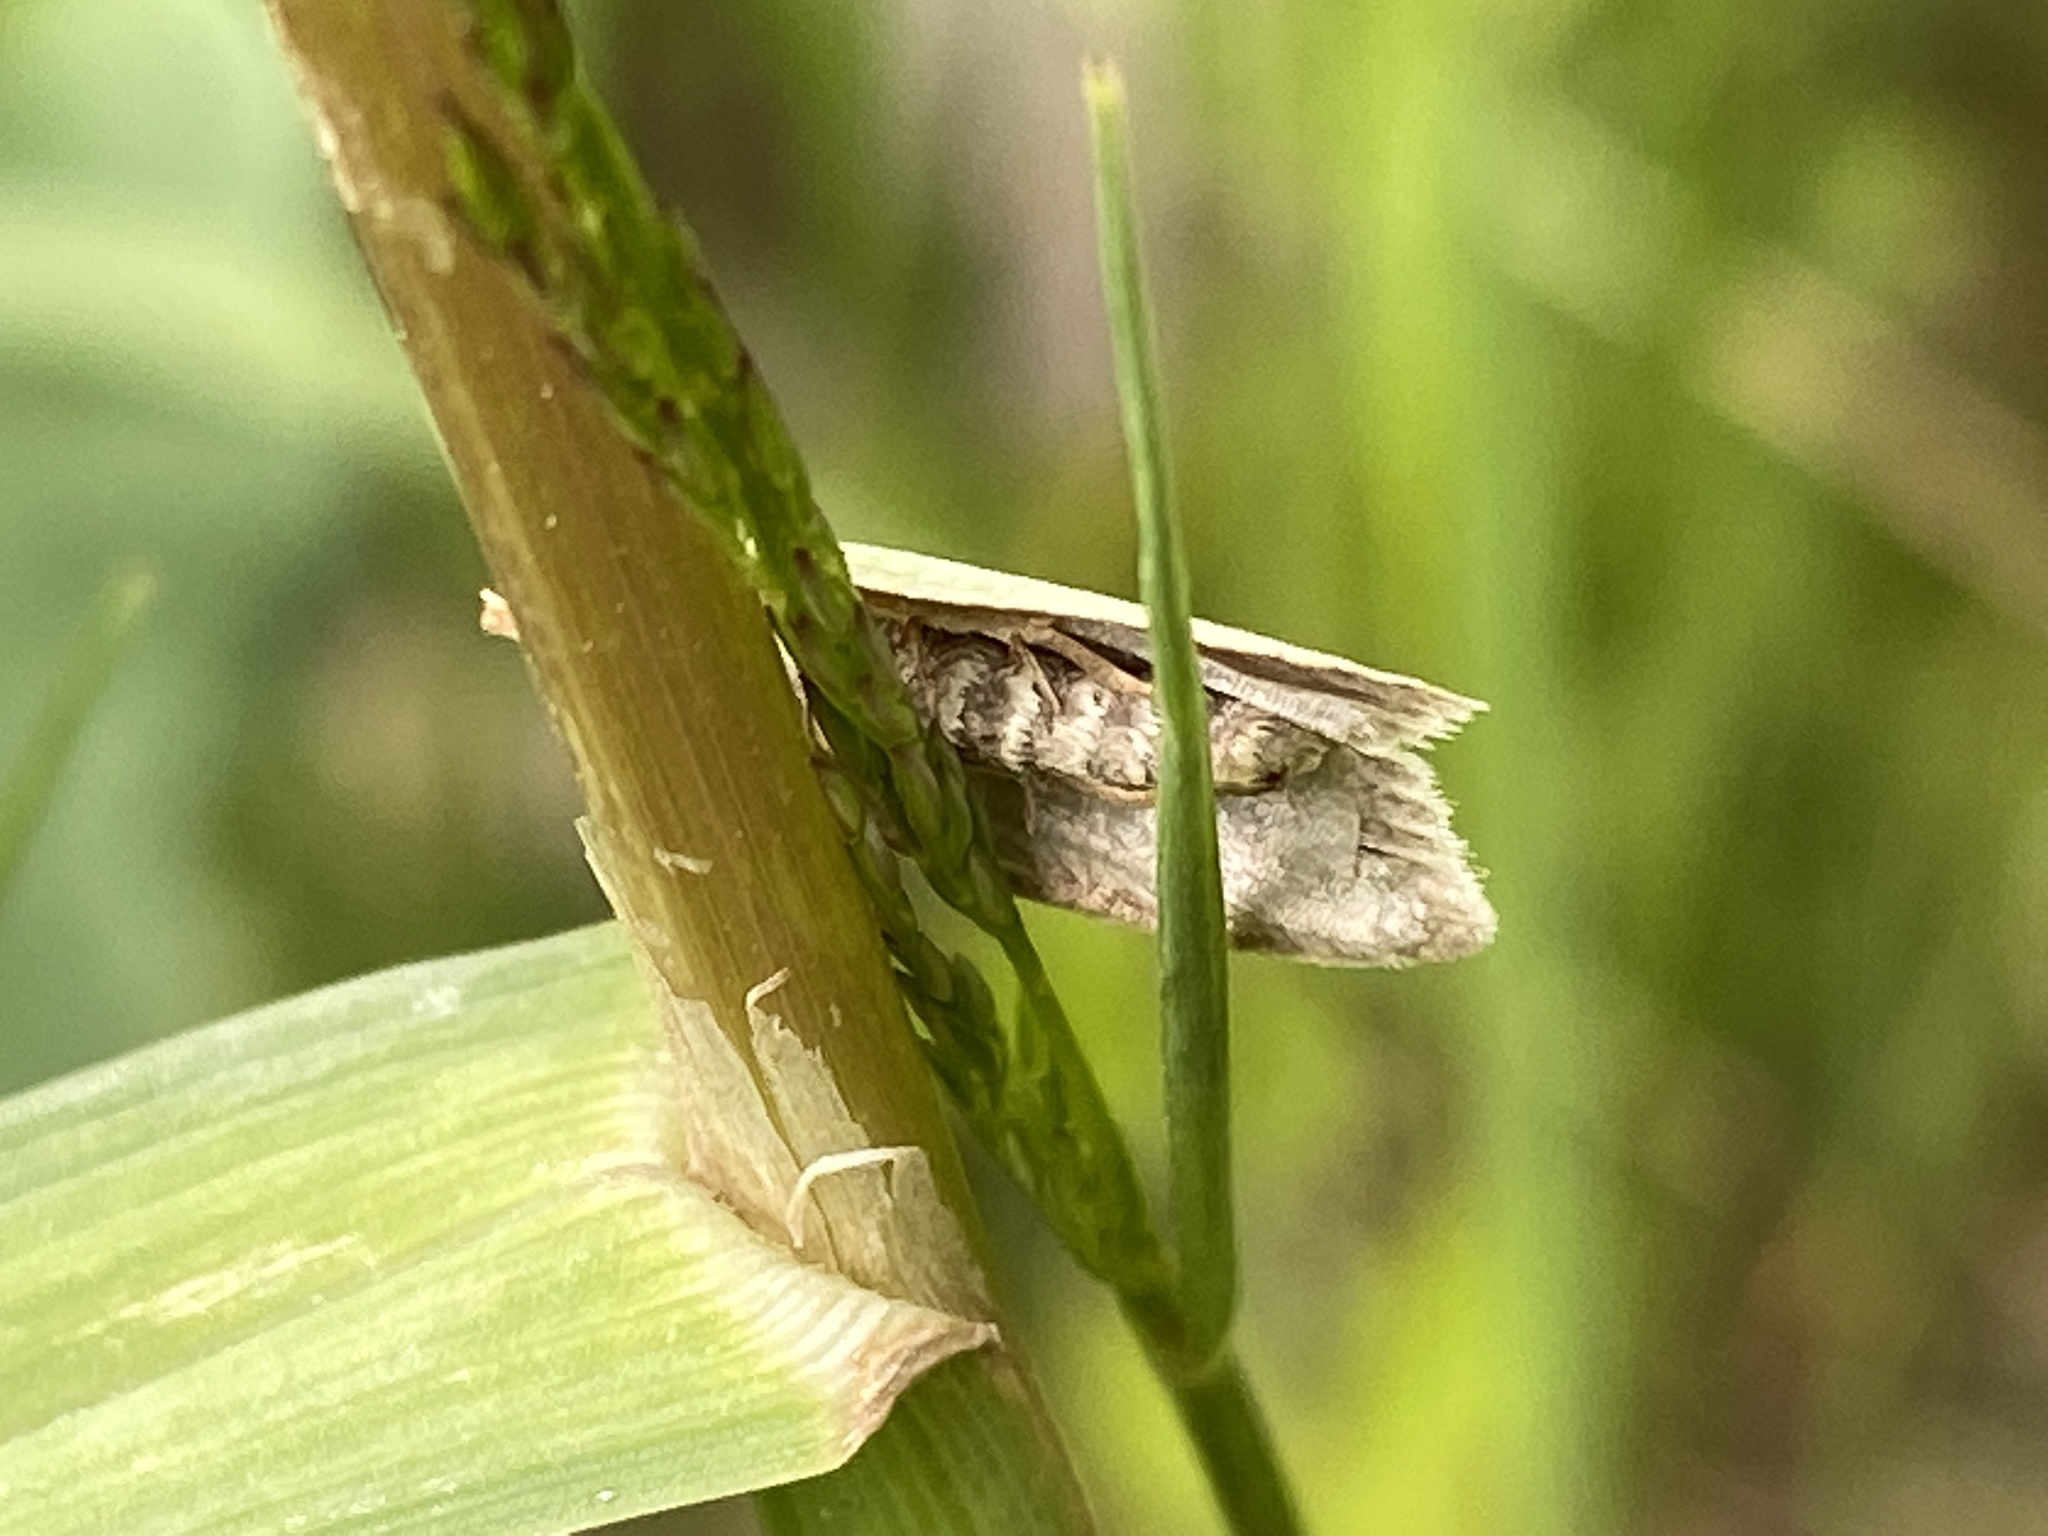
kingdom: Animalia
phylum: Arthropoda
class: Insecta
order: Lepidoptera
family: Tortricidae
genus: Tortrix
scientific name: Tortrix viridana
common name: Green oak tortrix
